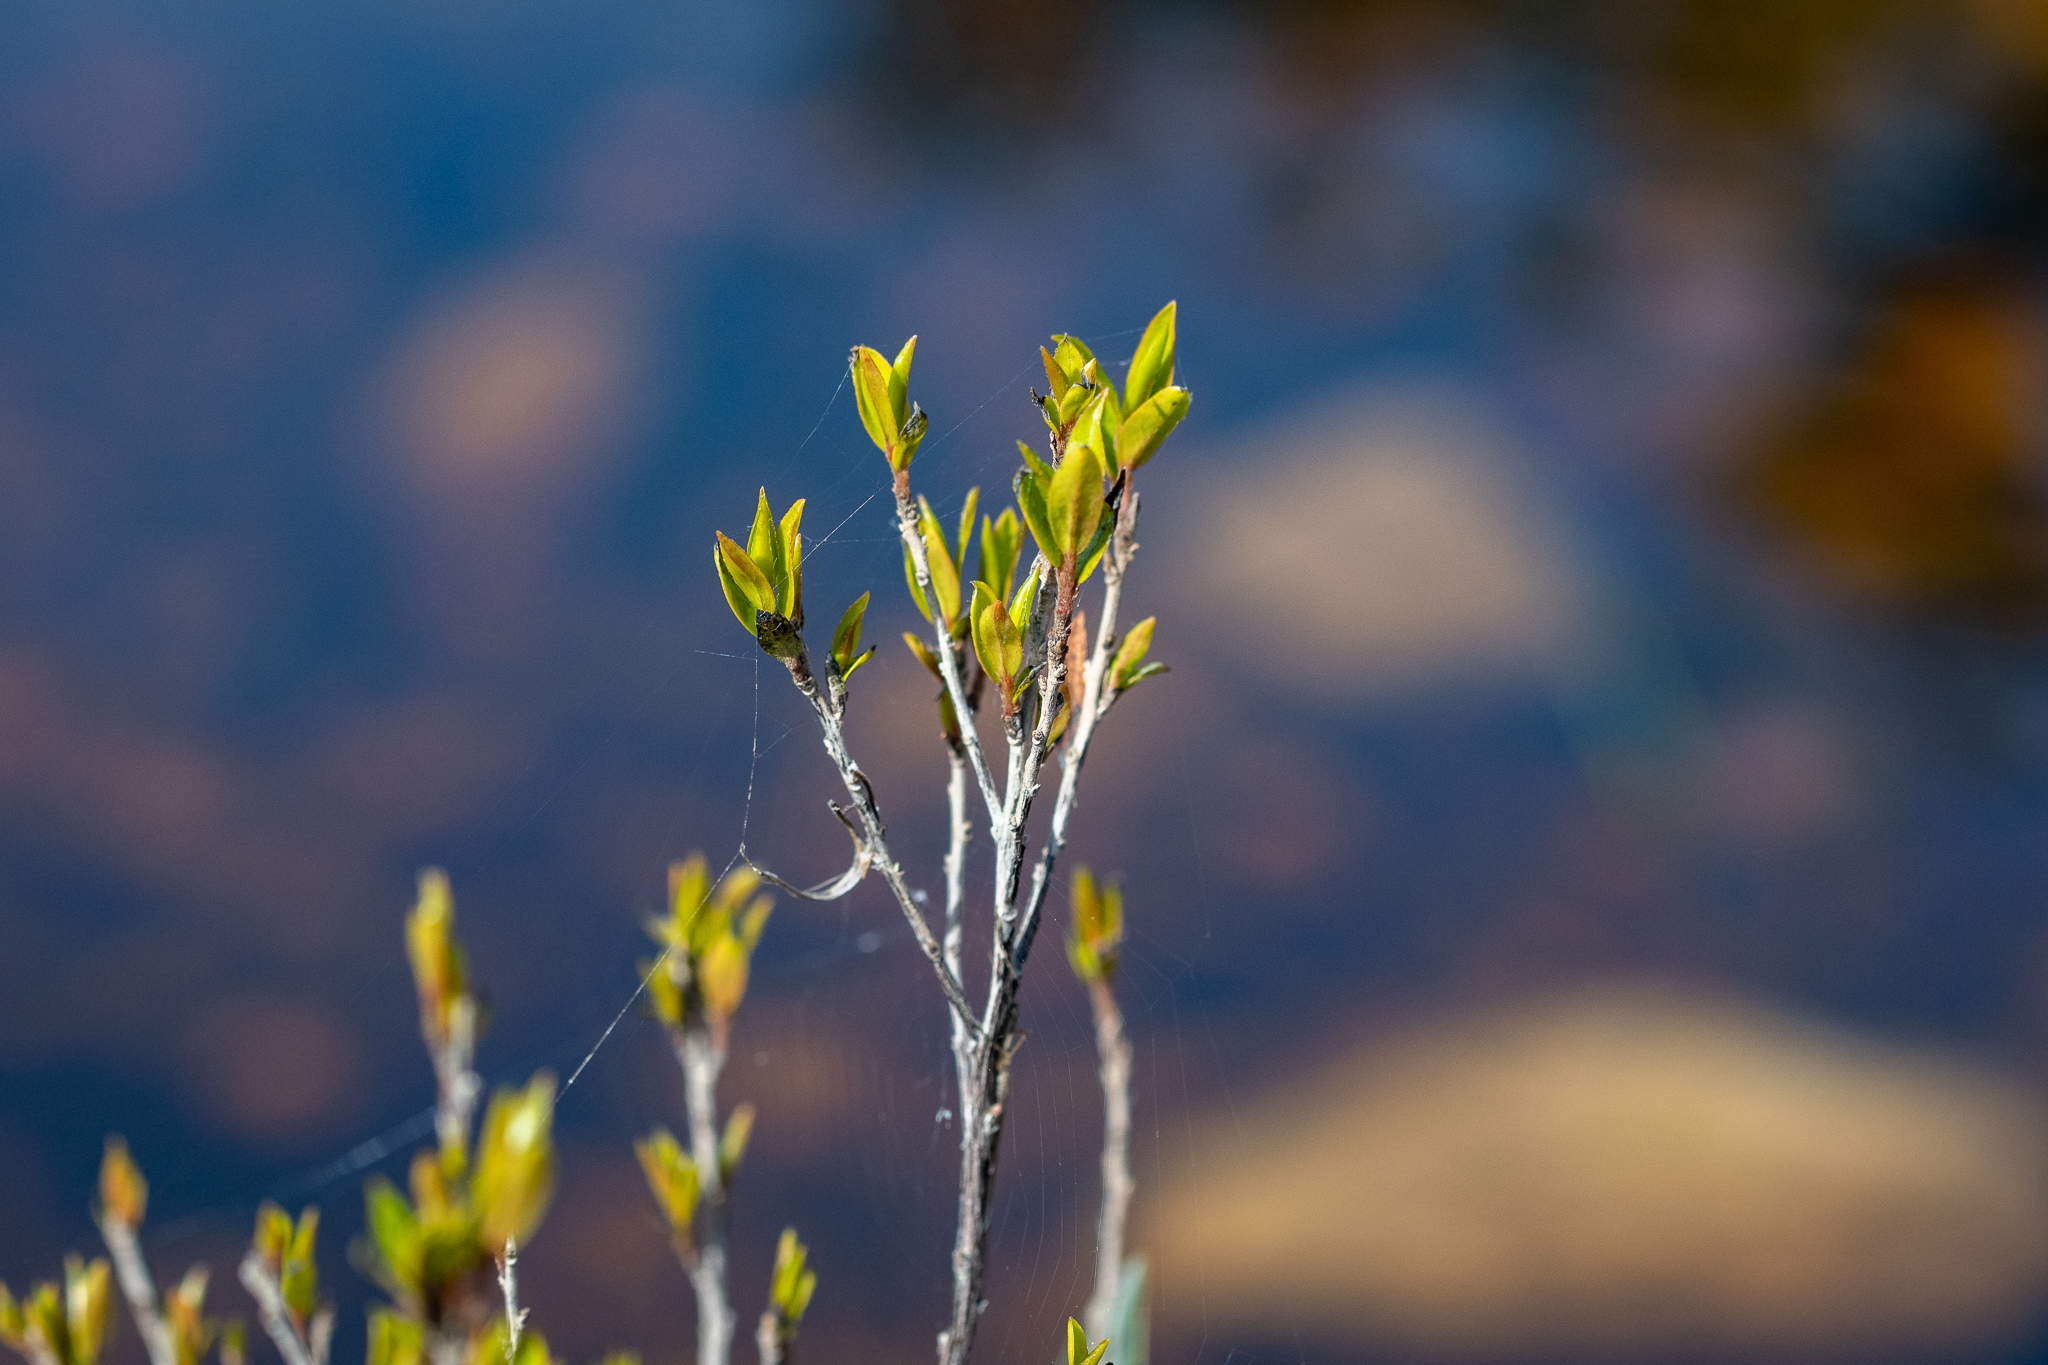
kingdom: Plantae
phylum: Tracheophyta
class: Magnoliopsida
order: Ericales
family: Ebenaceae
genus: Diospyros
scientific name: Diospyros glabra
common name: Fynbos star apple
